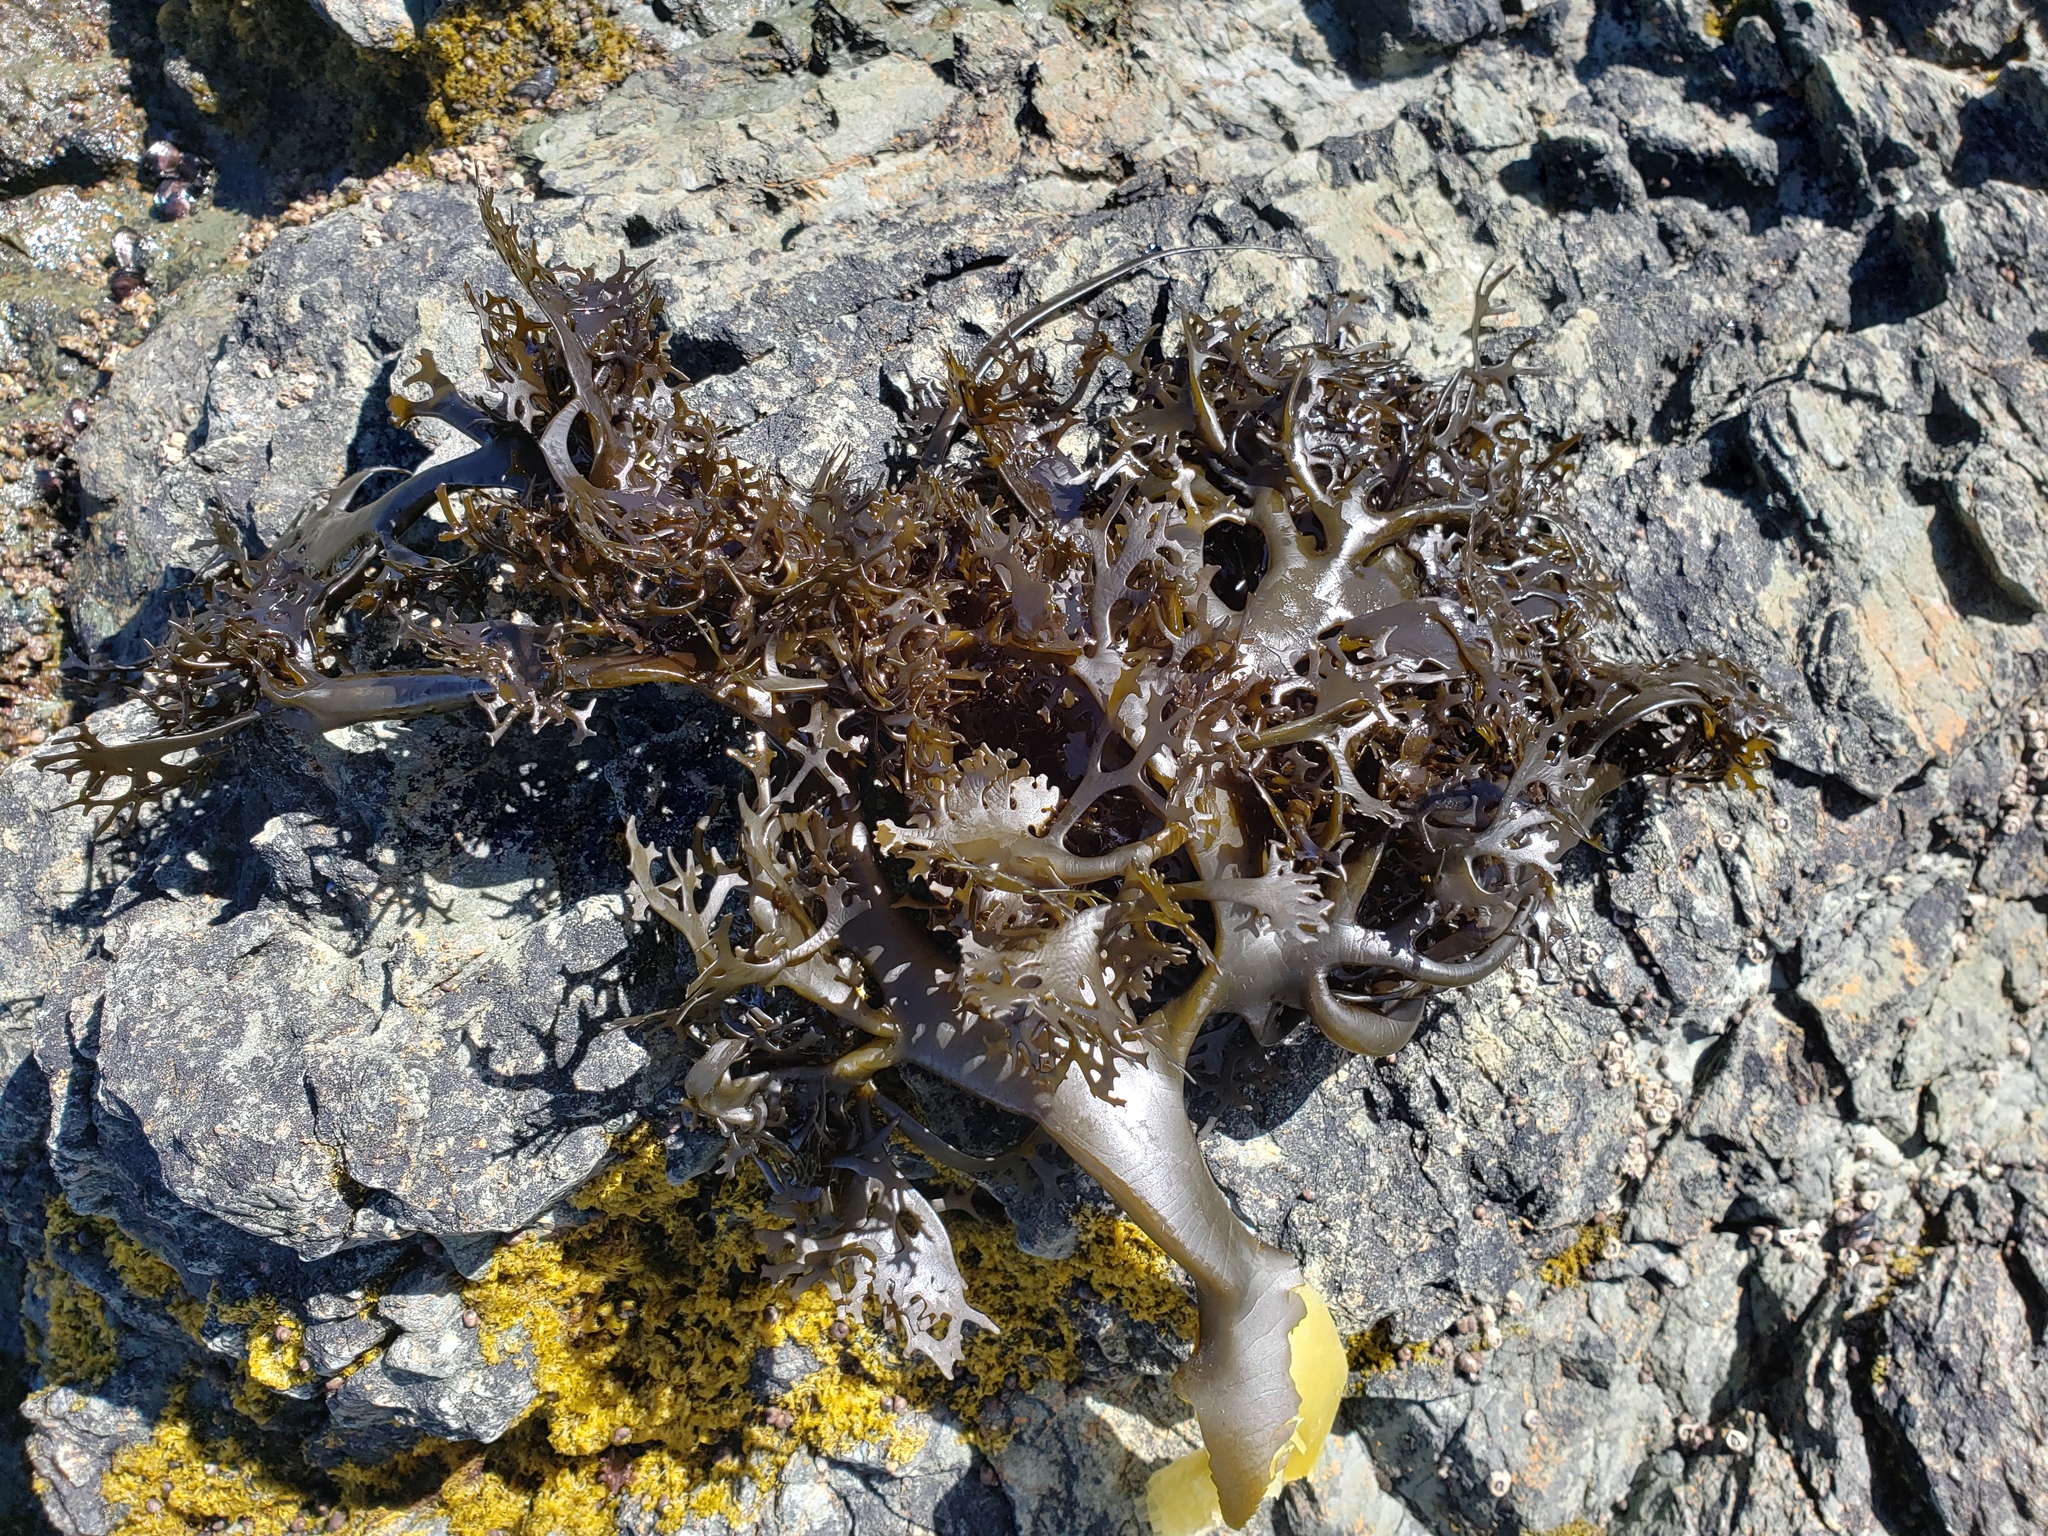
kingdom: Chromista
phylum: Ochrophyta
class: Phaeophyceae
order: Fucales
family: Durvillaeaceae
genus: Durvillaea
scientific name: Durvillaea antarctica
